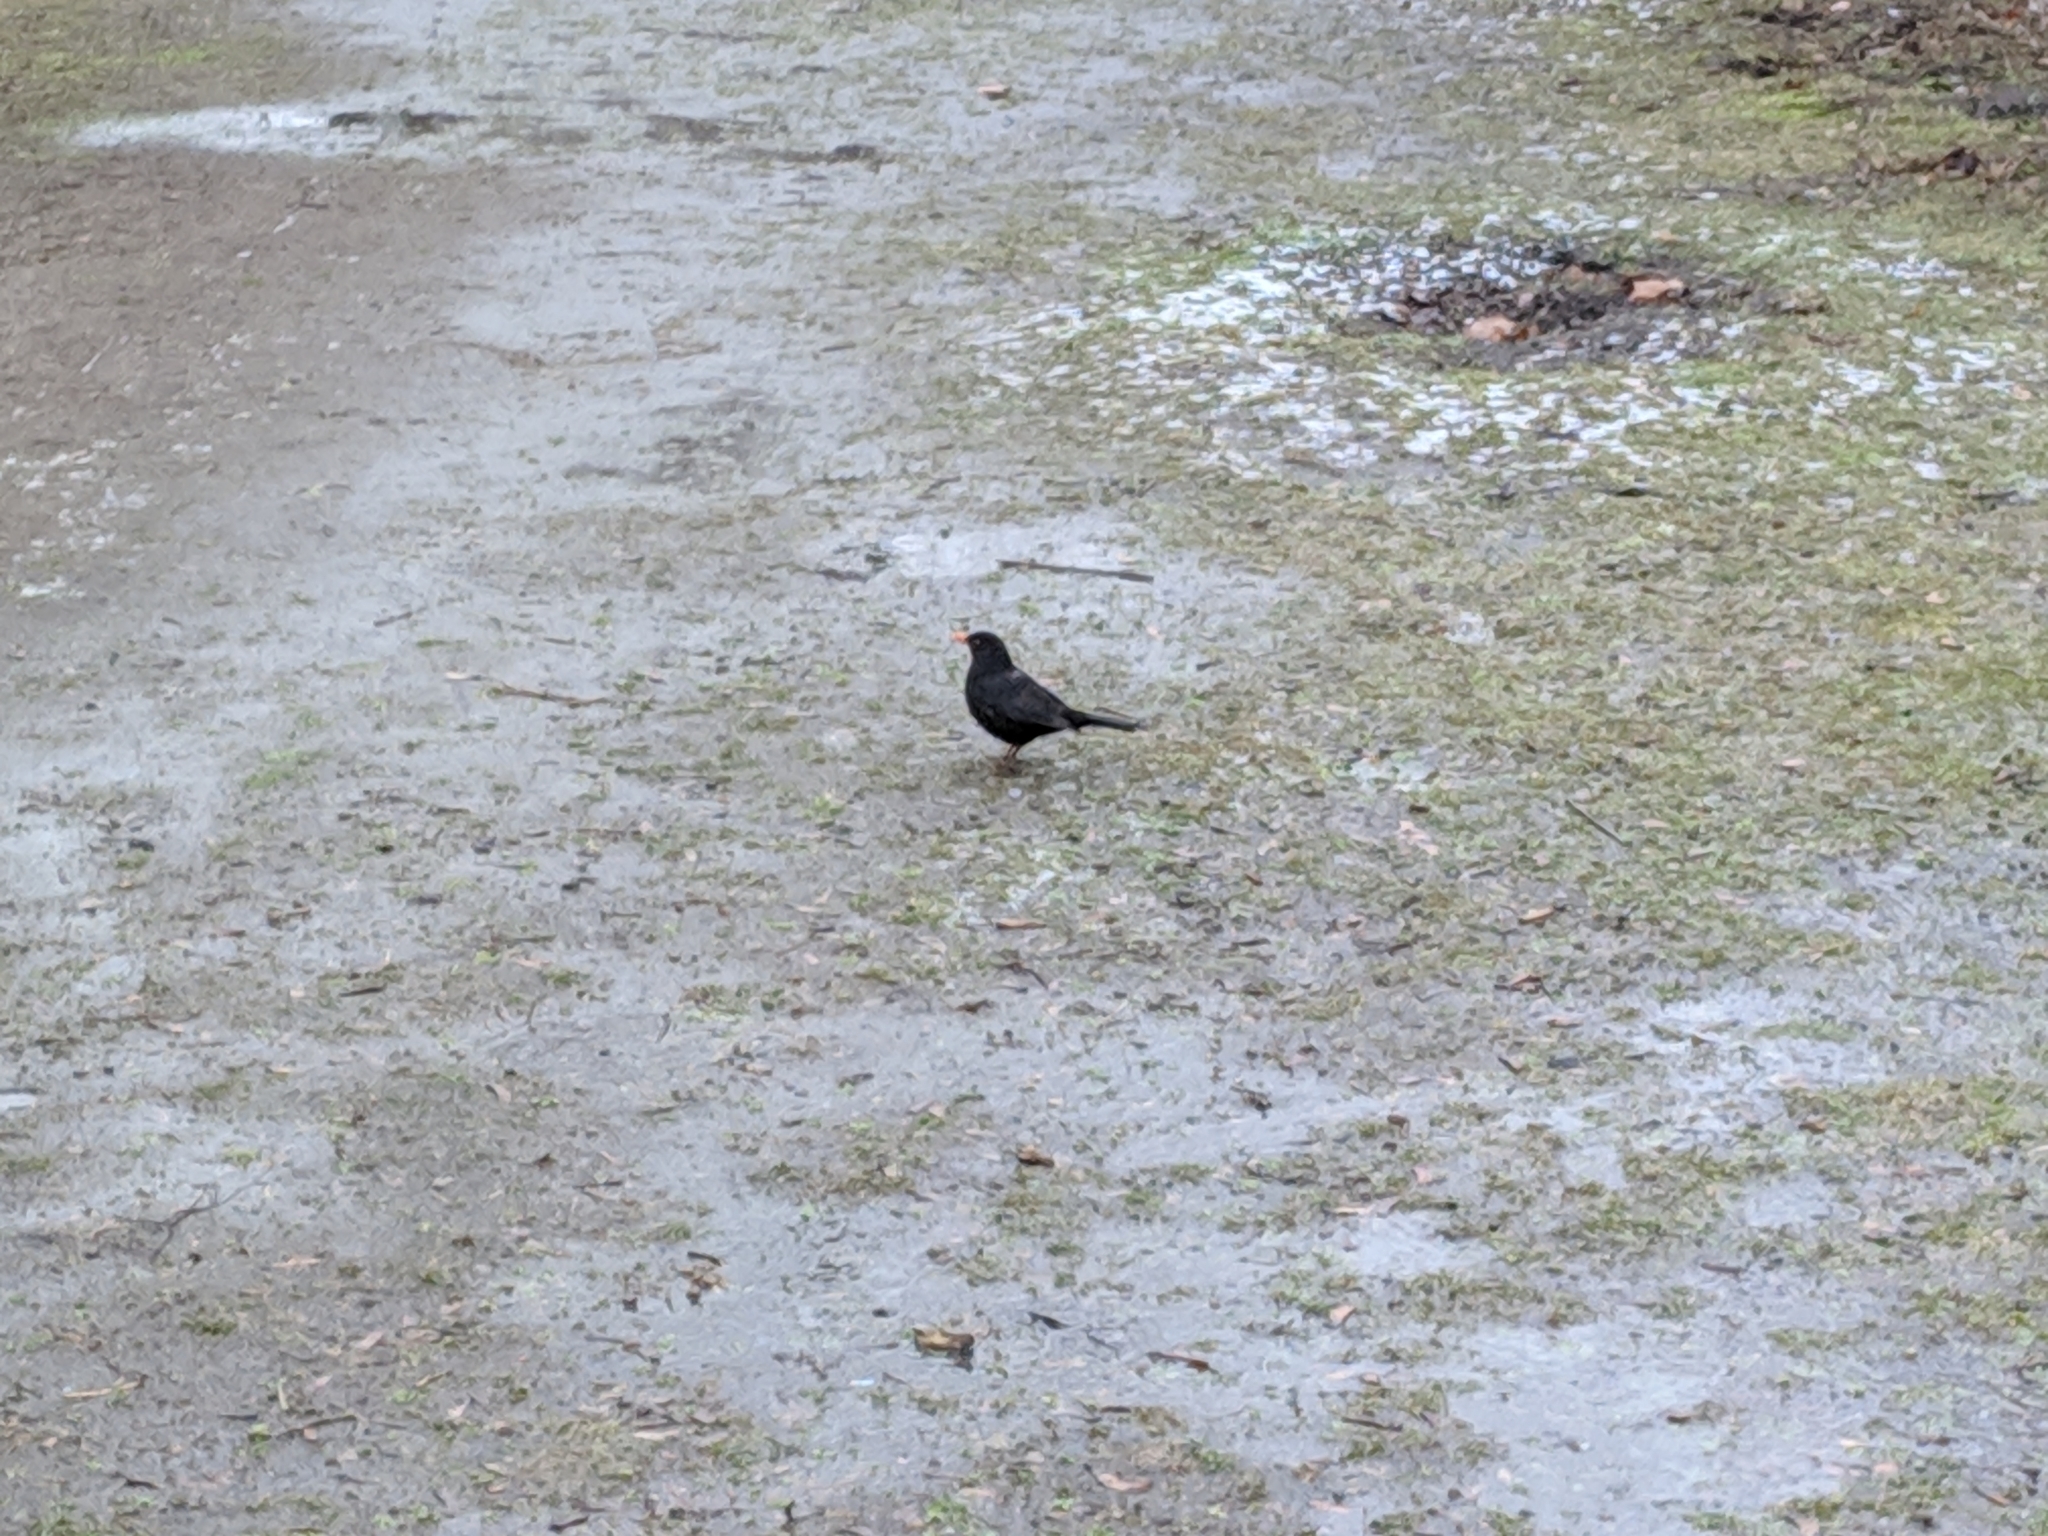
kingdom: Animalia
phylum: Chordata
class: Aves
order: Passeriformes
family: Turdidae
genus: Turdus
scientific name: Turdus merula
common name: Common blackbird
